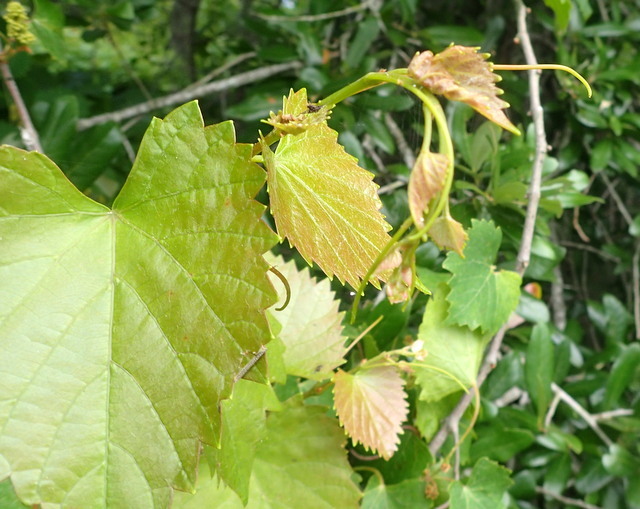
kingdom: Plantae
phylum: Tracheophyta
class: Magnoliopsida
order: Vitales
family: Vitaceae
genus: Vitis
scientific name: Vitis rotundifolia
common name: Muscadine grape
